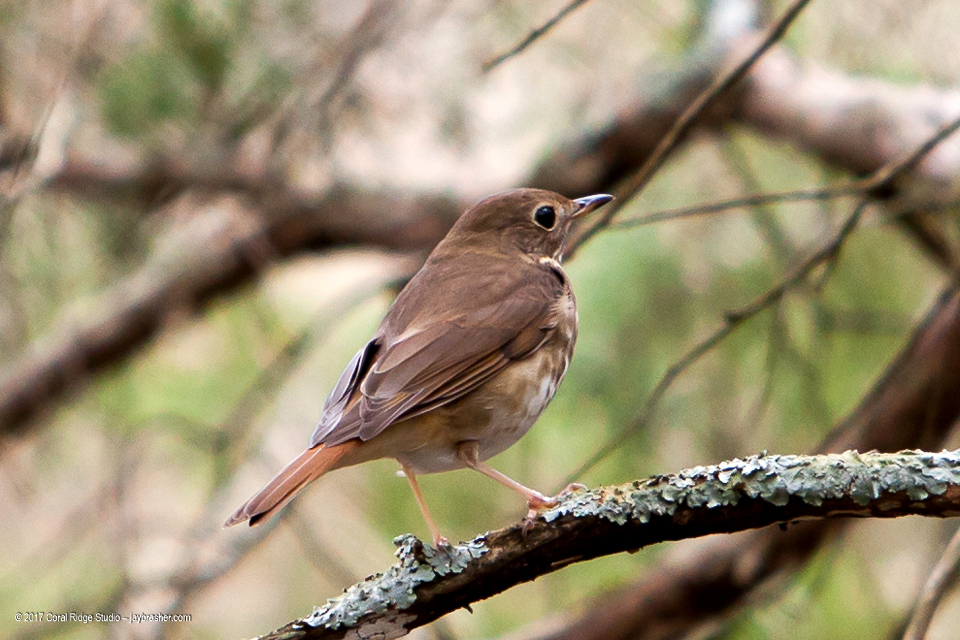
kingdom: Animalia
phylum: Chordata
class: Aves
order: Passeriformes
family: Turdidae
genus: Catharus
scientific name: Catharus guttatus
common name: Hermit thrush
